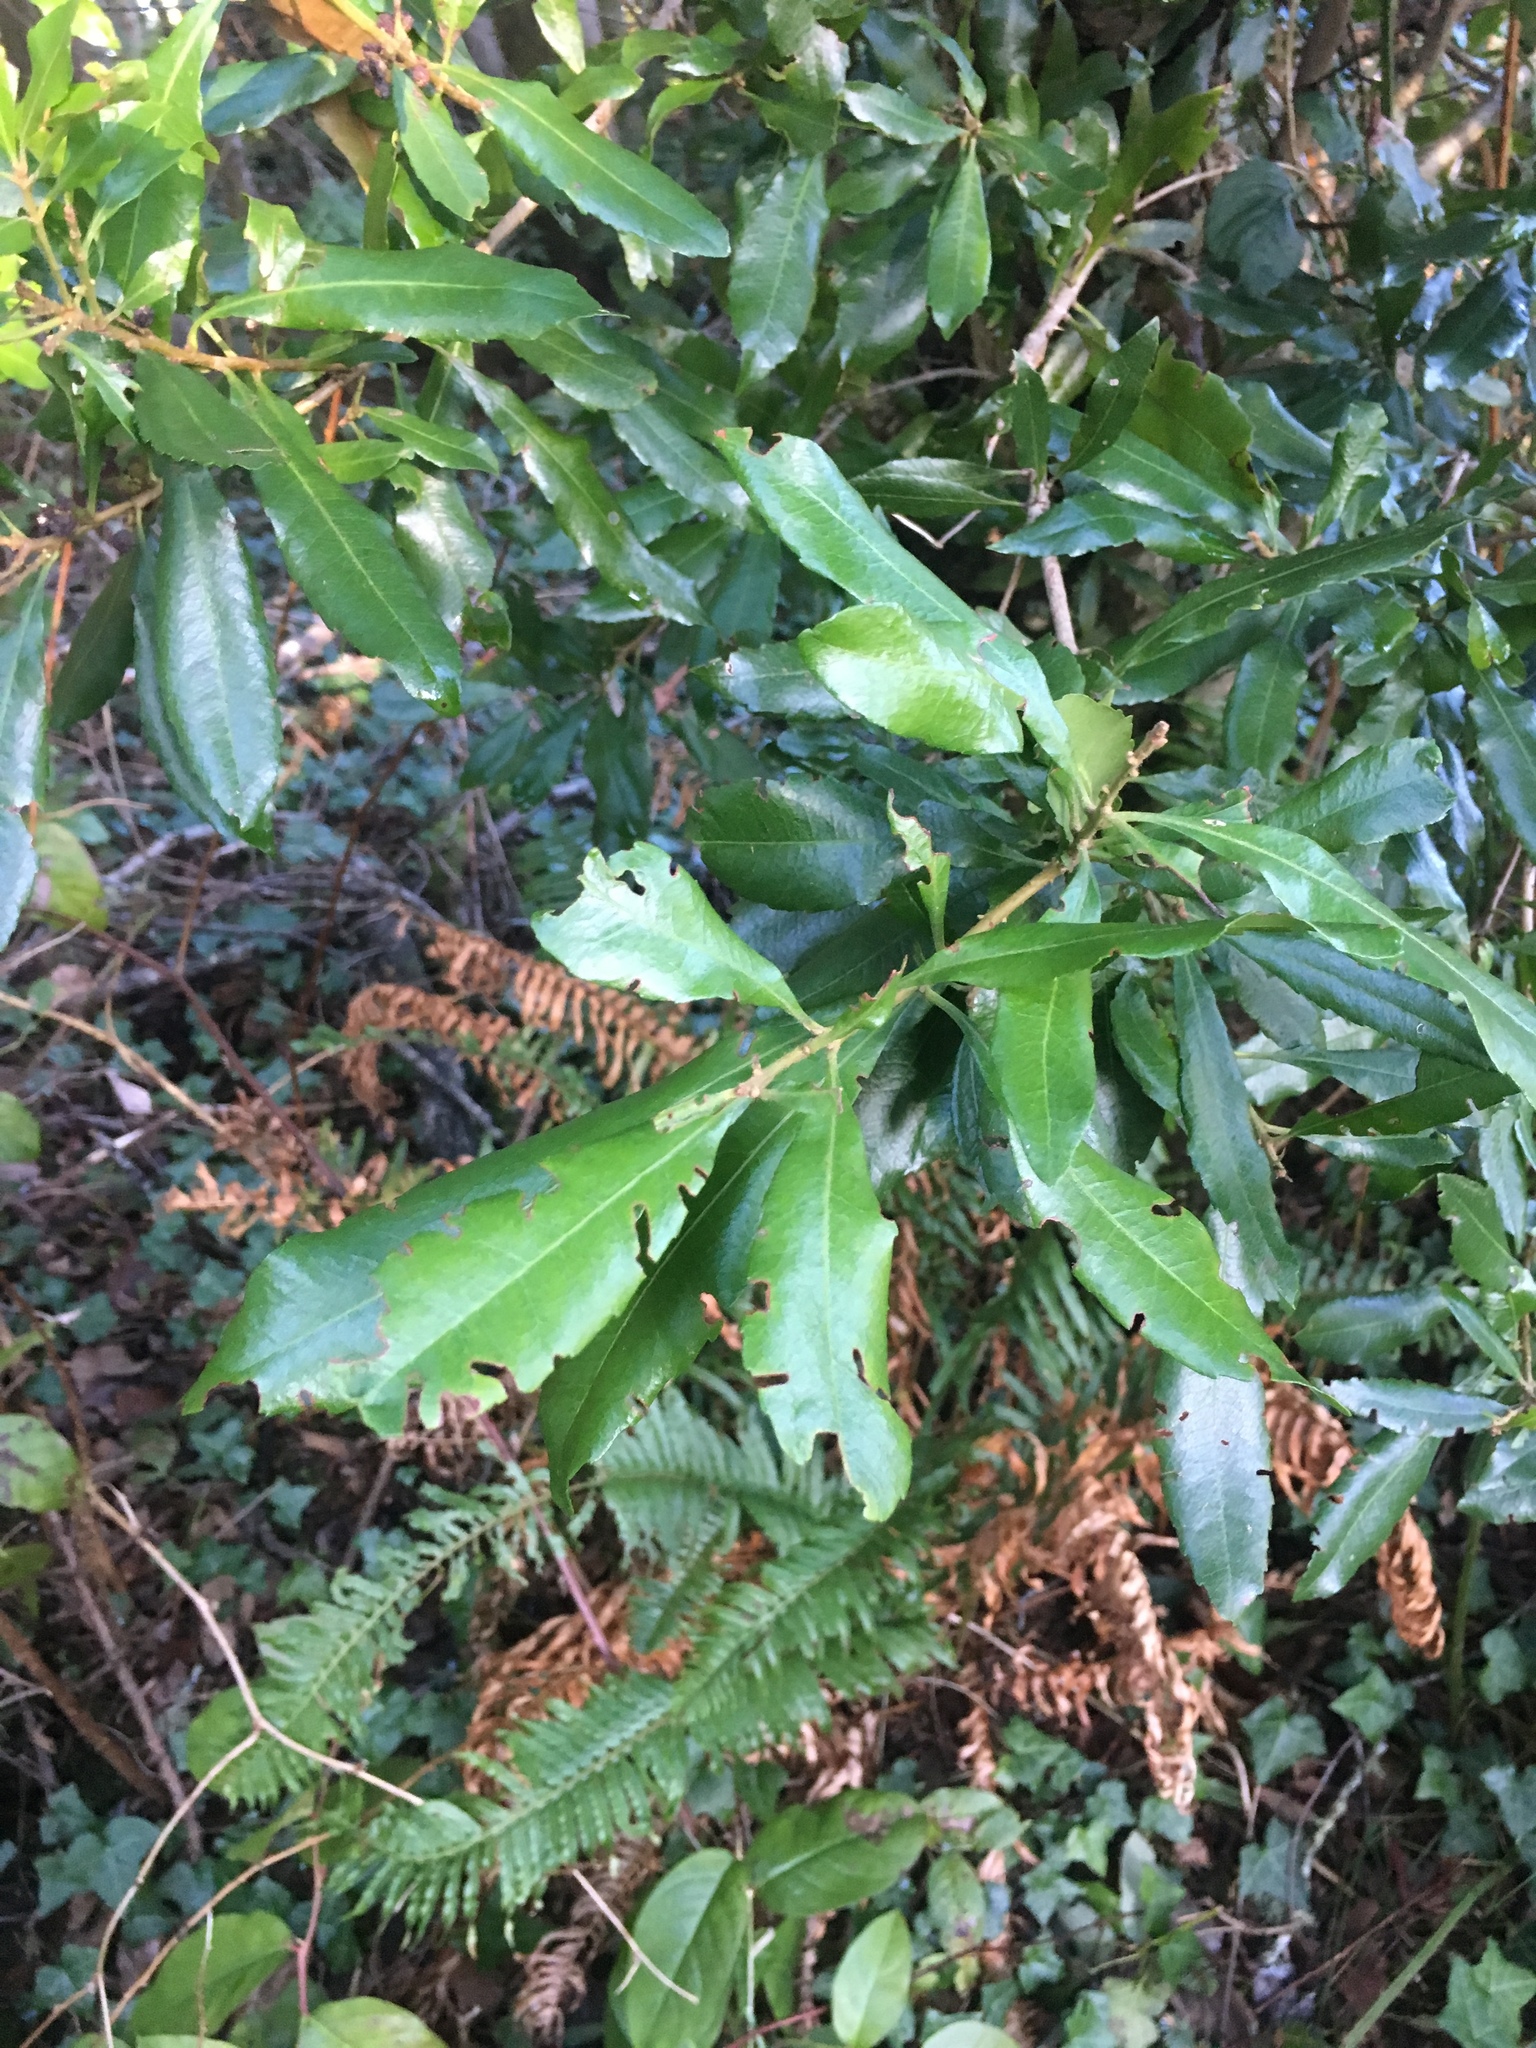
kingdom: Plantae
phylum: Tracheophyta
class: Magnoliopsida
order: Fagales
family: Myricaceae
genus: Morella
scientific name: Morella californica
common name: California wax-myrtle
